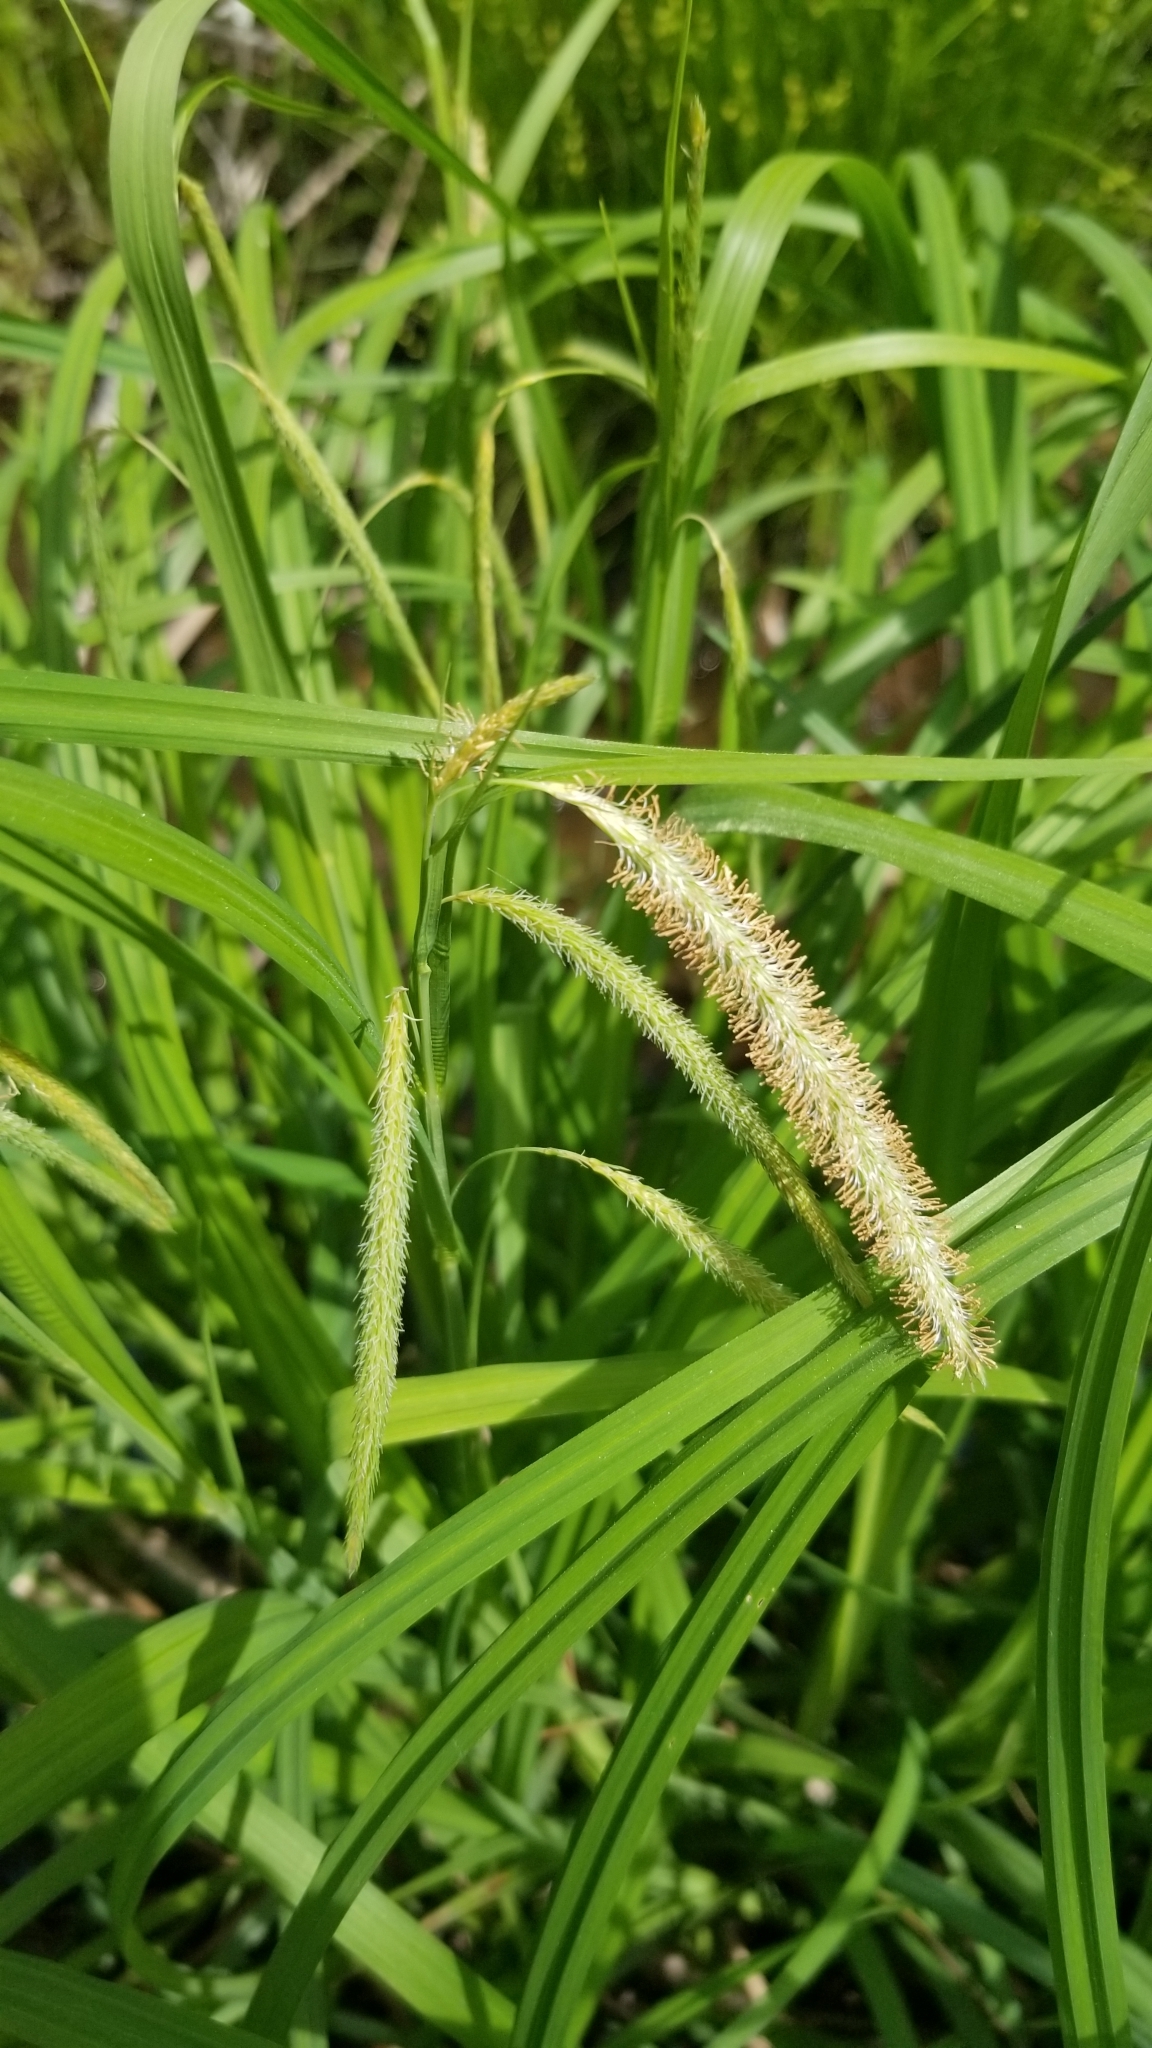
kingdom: Plantae
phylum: Tracheophyta
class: Liliopsida
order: Poales
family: Cyperaceae
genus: Carex
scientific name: Carex crinita
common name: Fringed sedge
